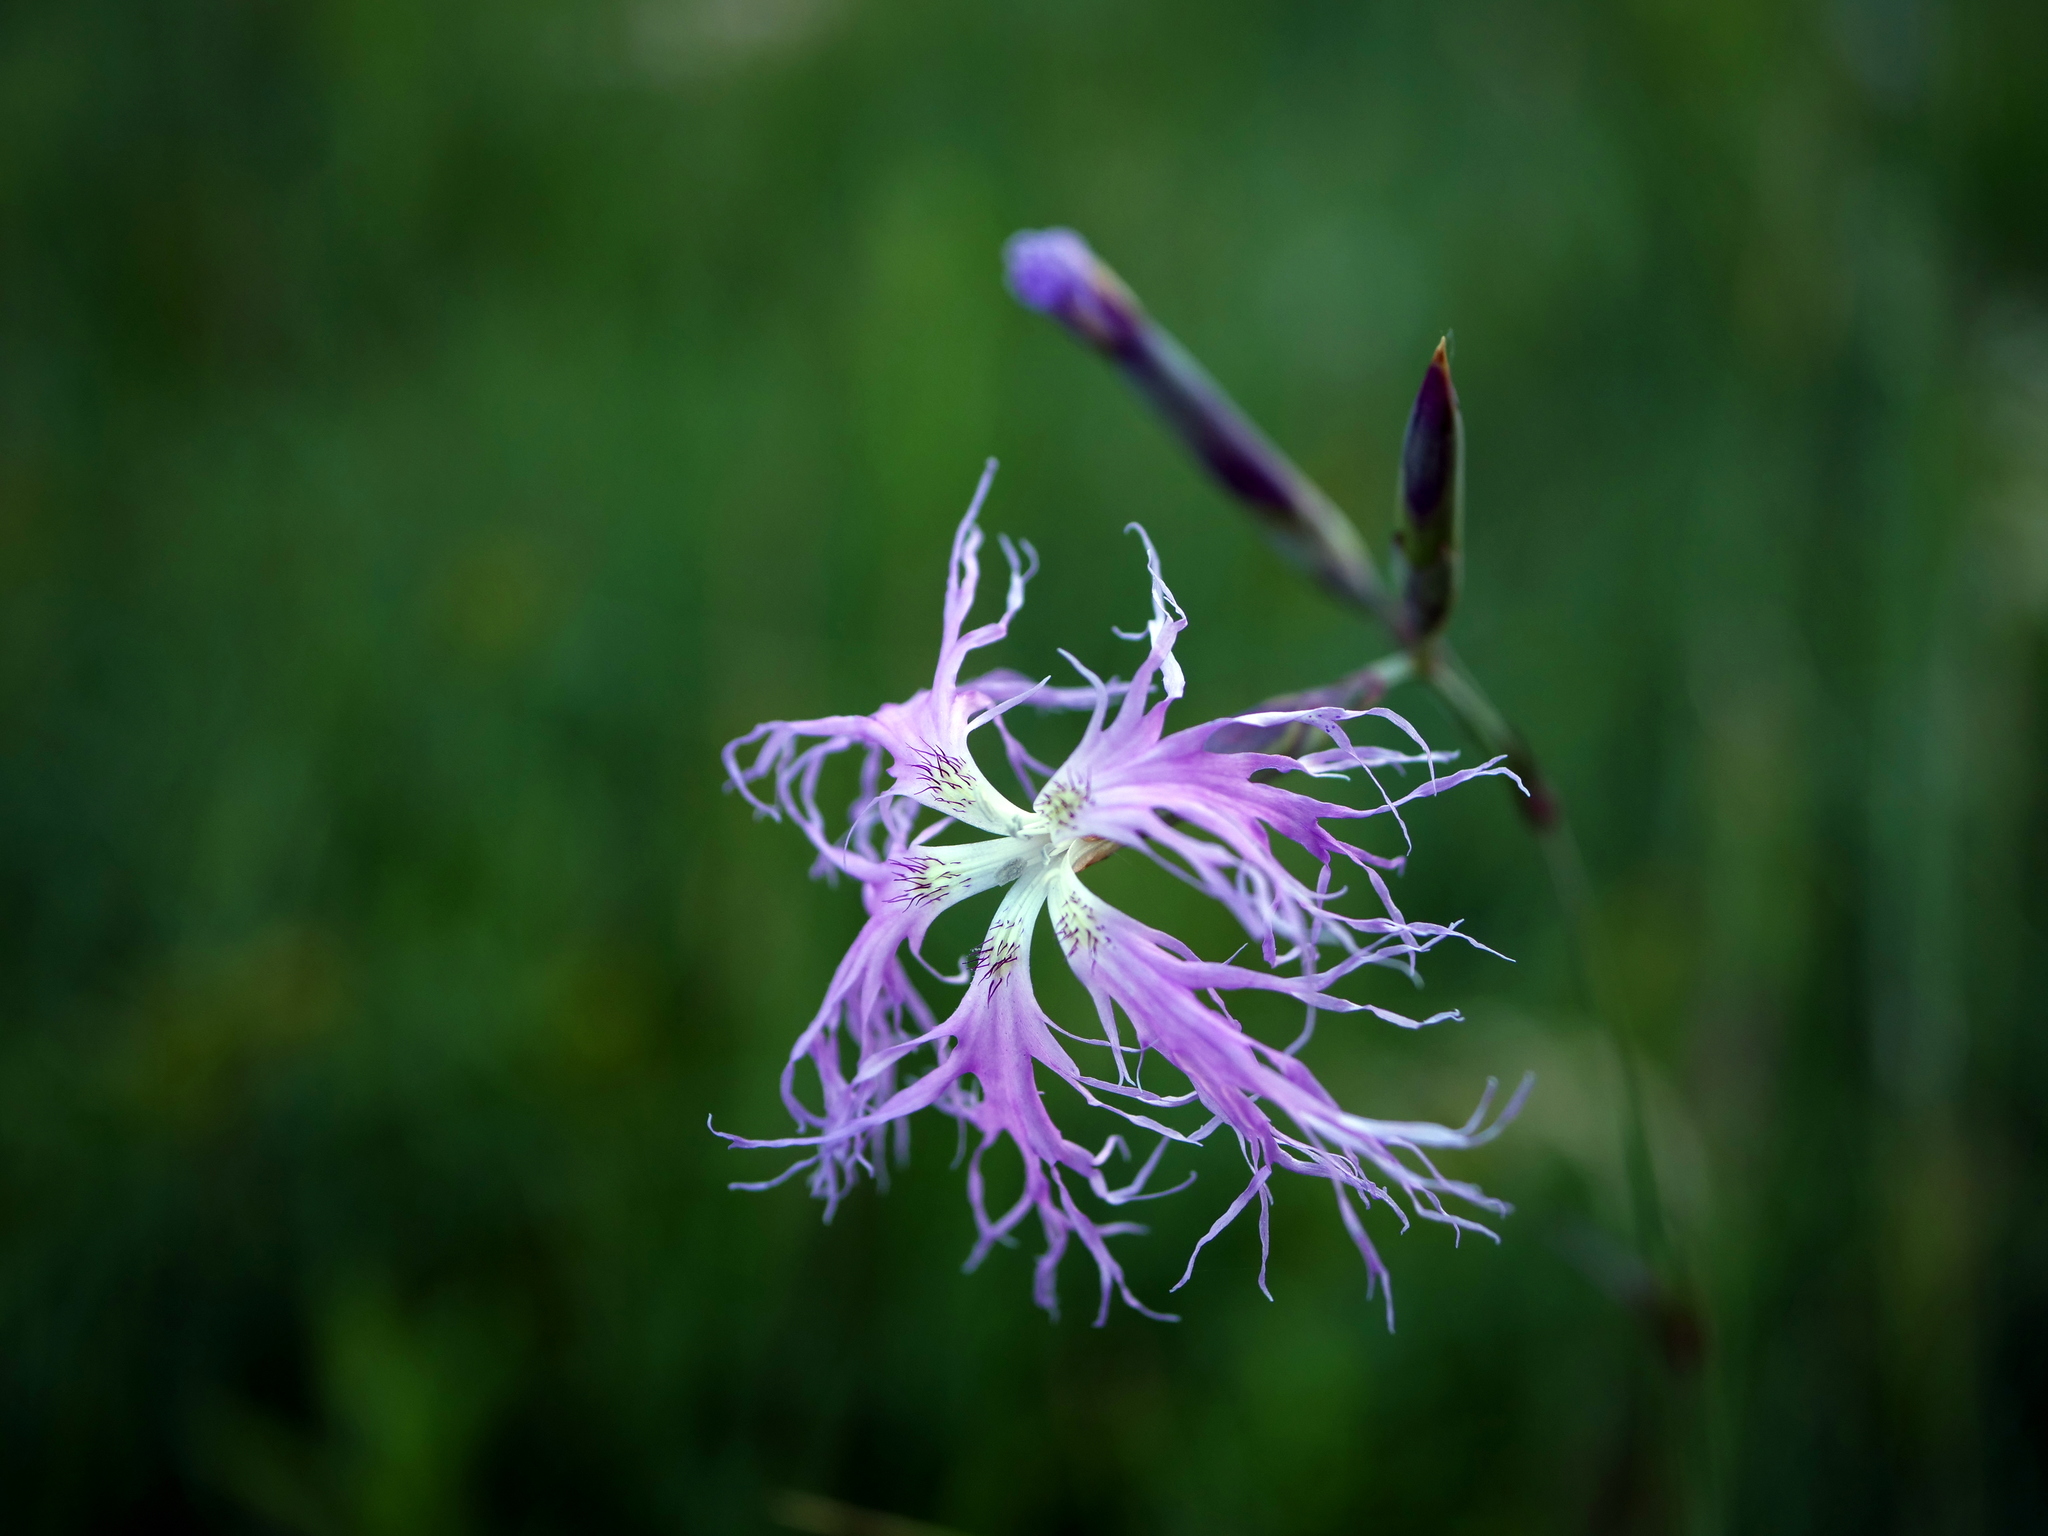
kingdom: Plantae
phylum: Tracheophyta
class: Magnoliopsida
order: Caryophyllales
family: Caryophyllaceae
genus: Dianthus
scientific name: Dianthus superbus
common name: Fringed pink
